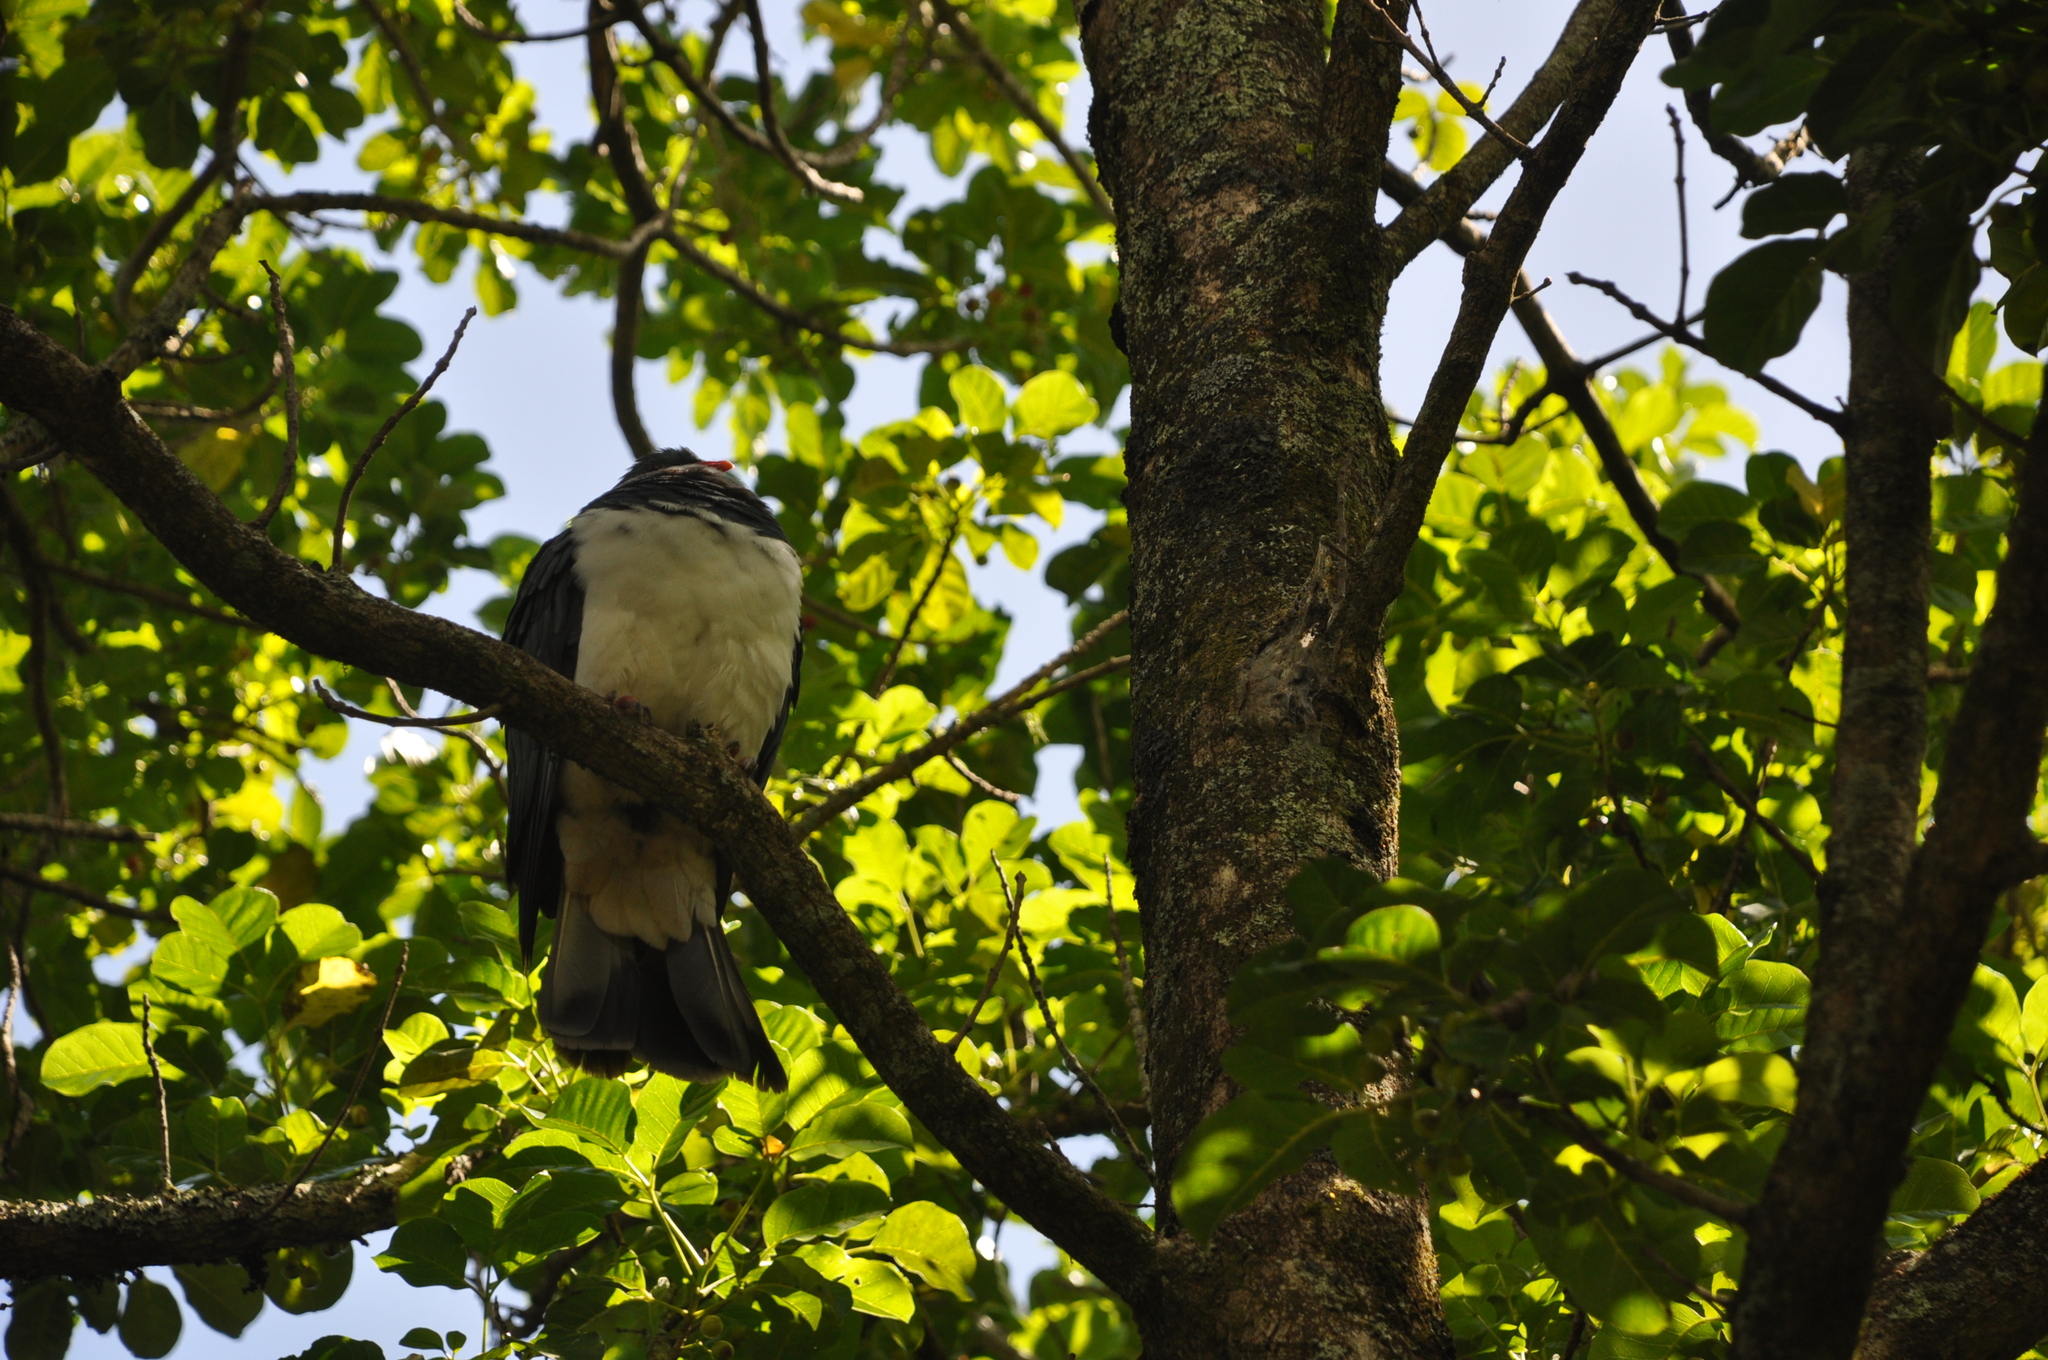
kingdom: Animalia
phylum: Chordata
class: Aves
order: Columbiformes
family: Columbidae
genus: Hemiphaga
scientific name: Hemiphaga novaeseelandiae
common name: New zealand pigeon
